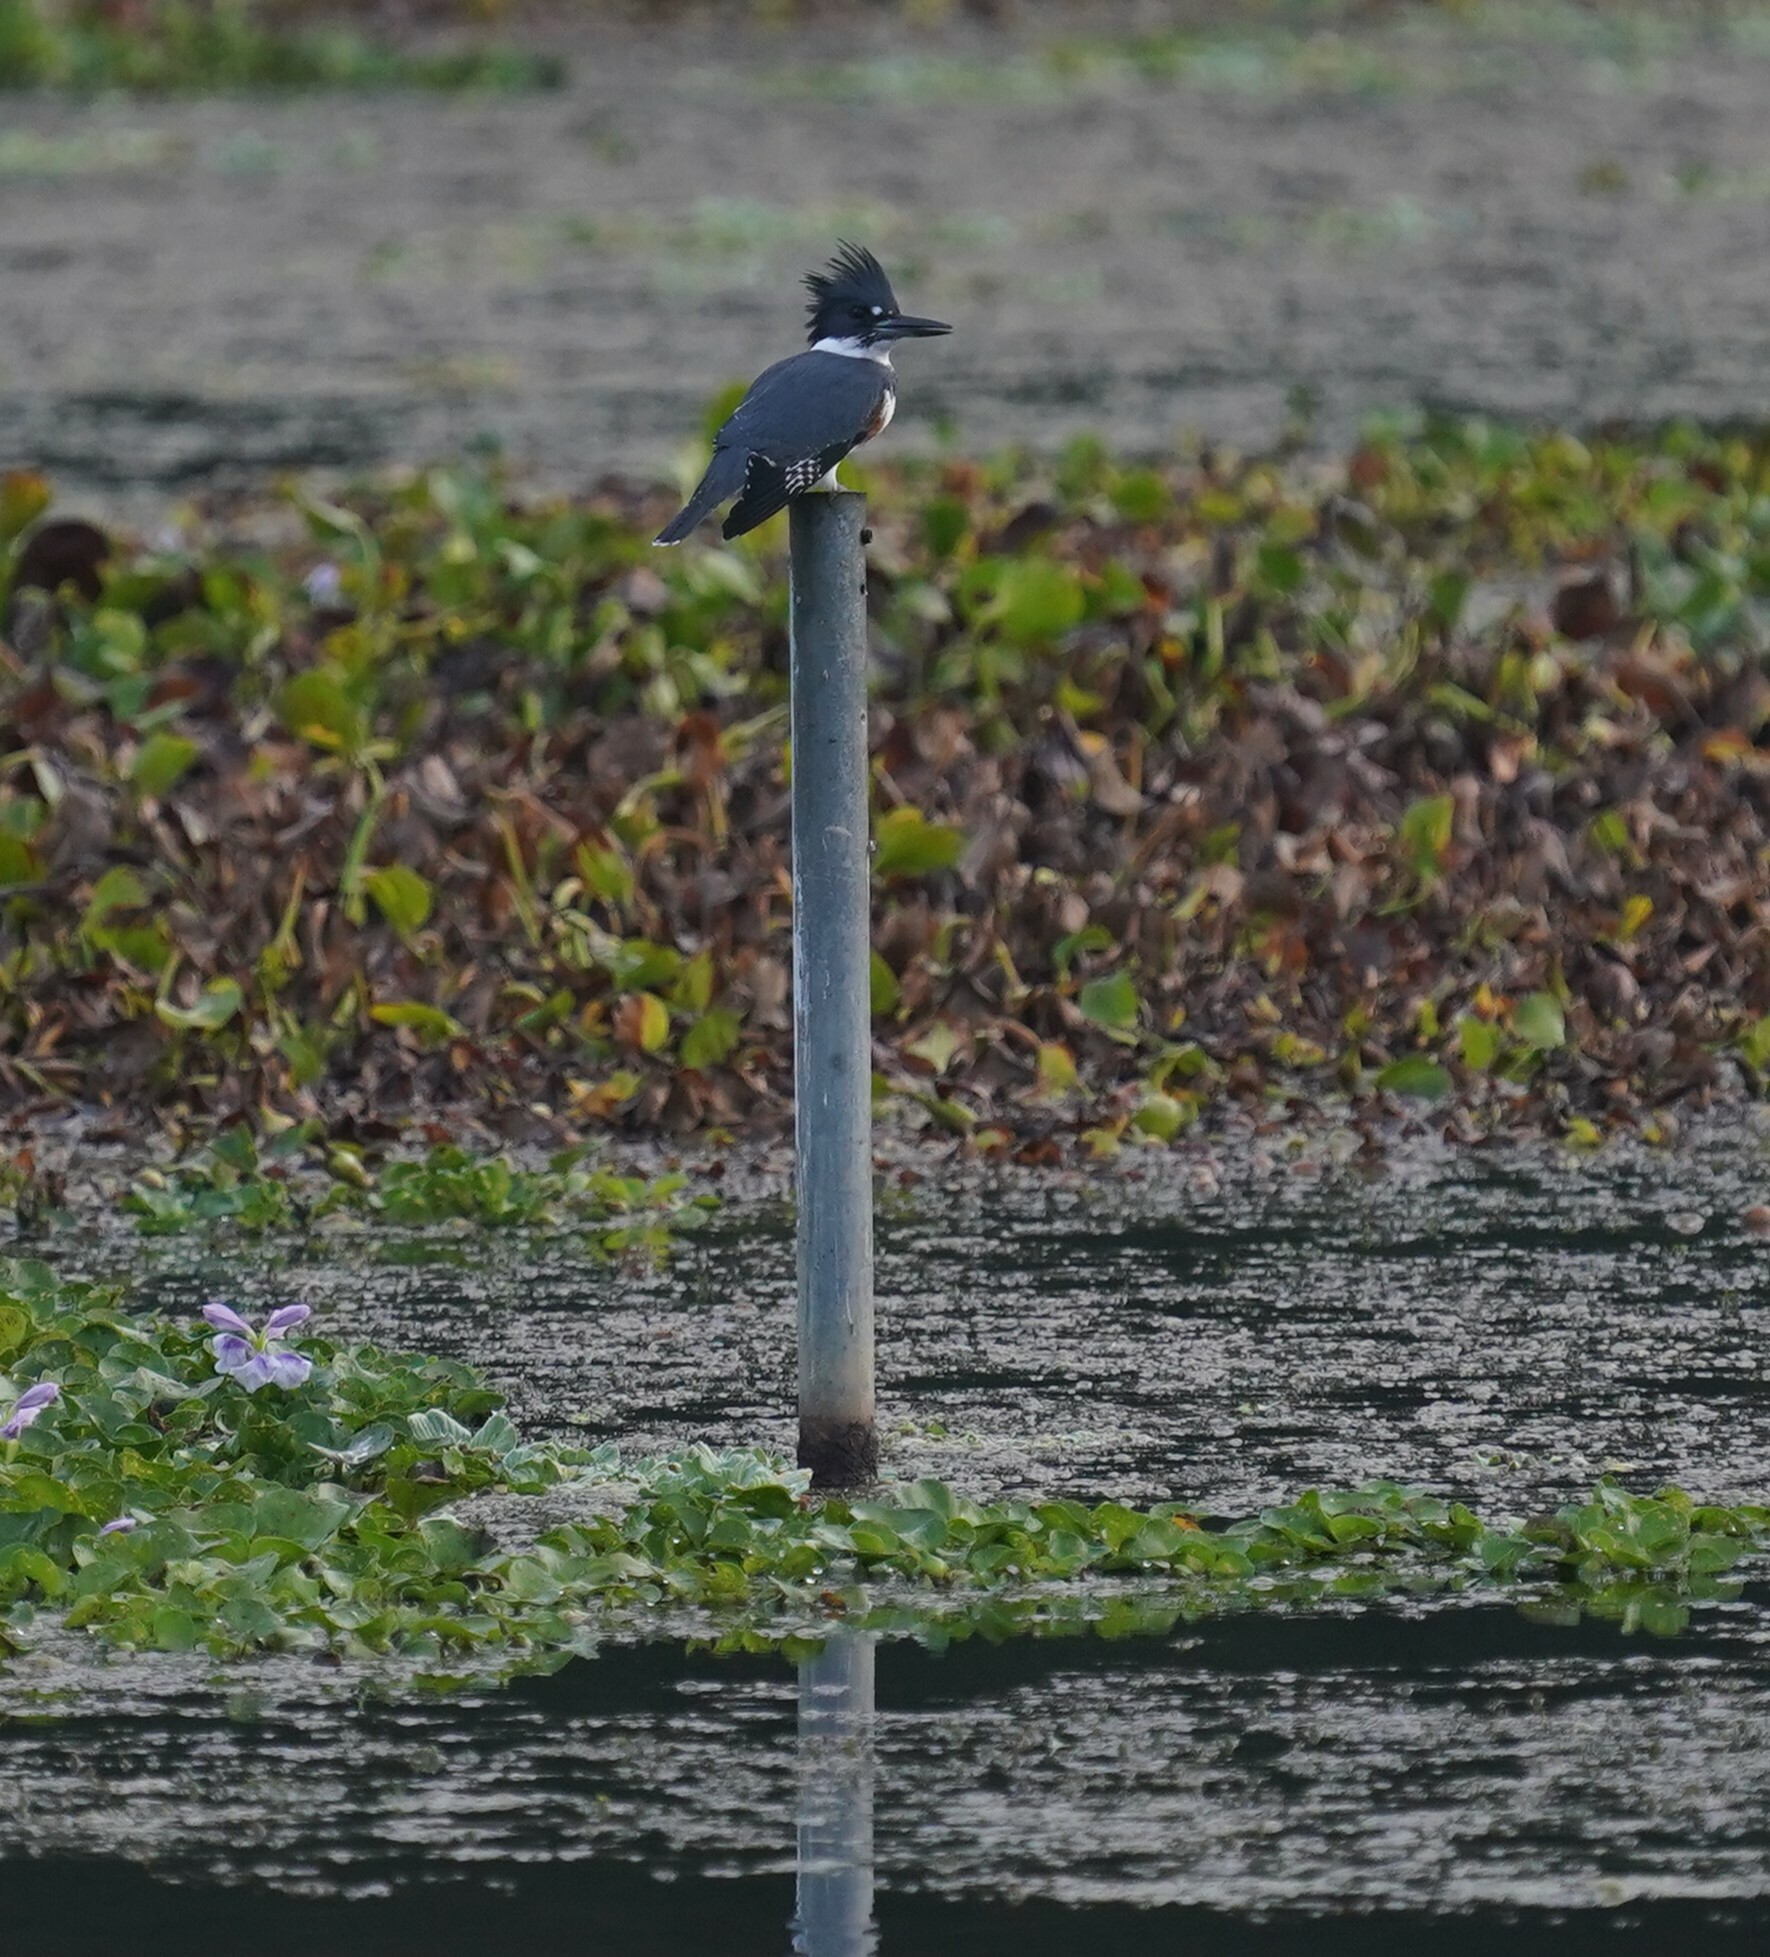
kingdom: Animalia
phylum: Chordata
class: Aves
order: Coraciiformes
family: Alcedinidae
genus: Megaceryle
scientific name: Megaceryle alcyon
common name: Belted kingfisher
